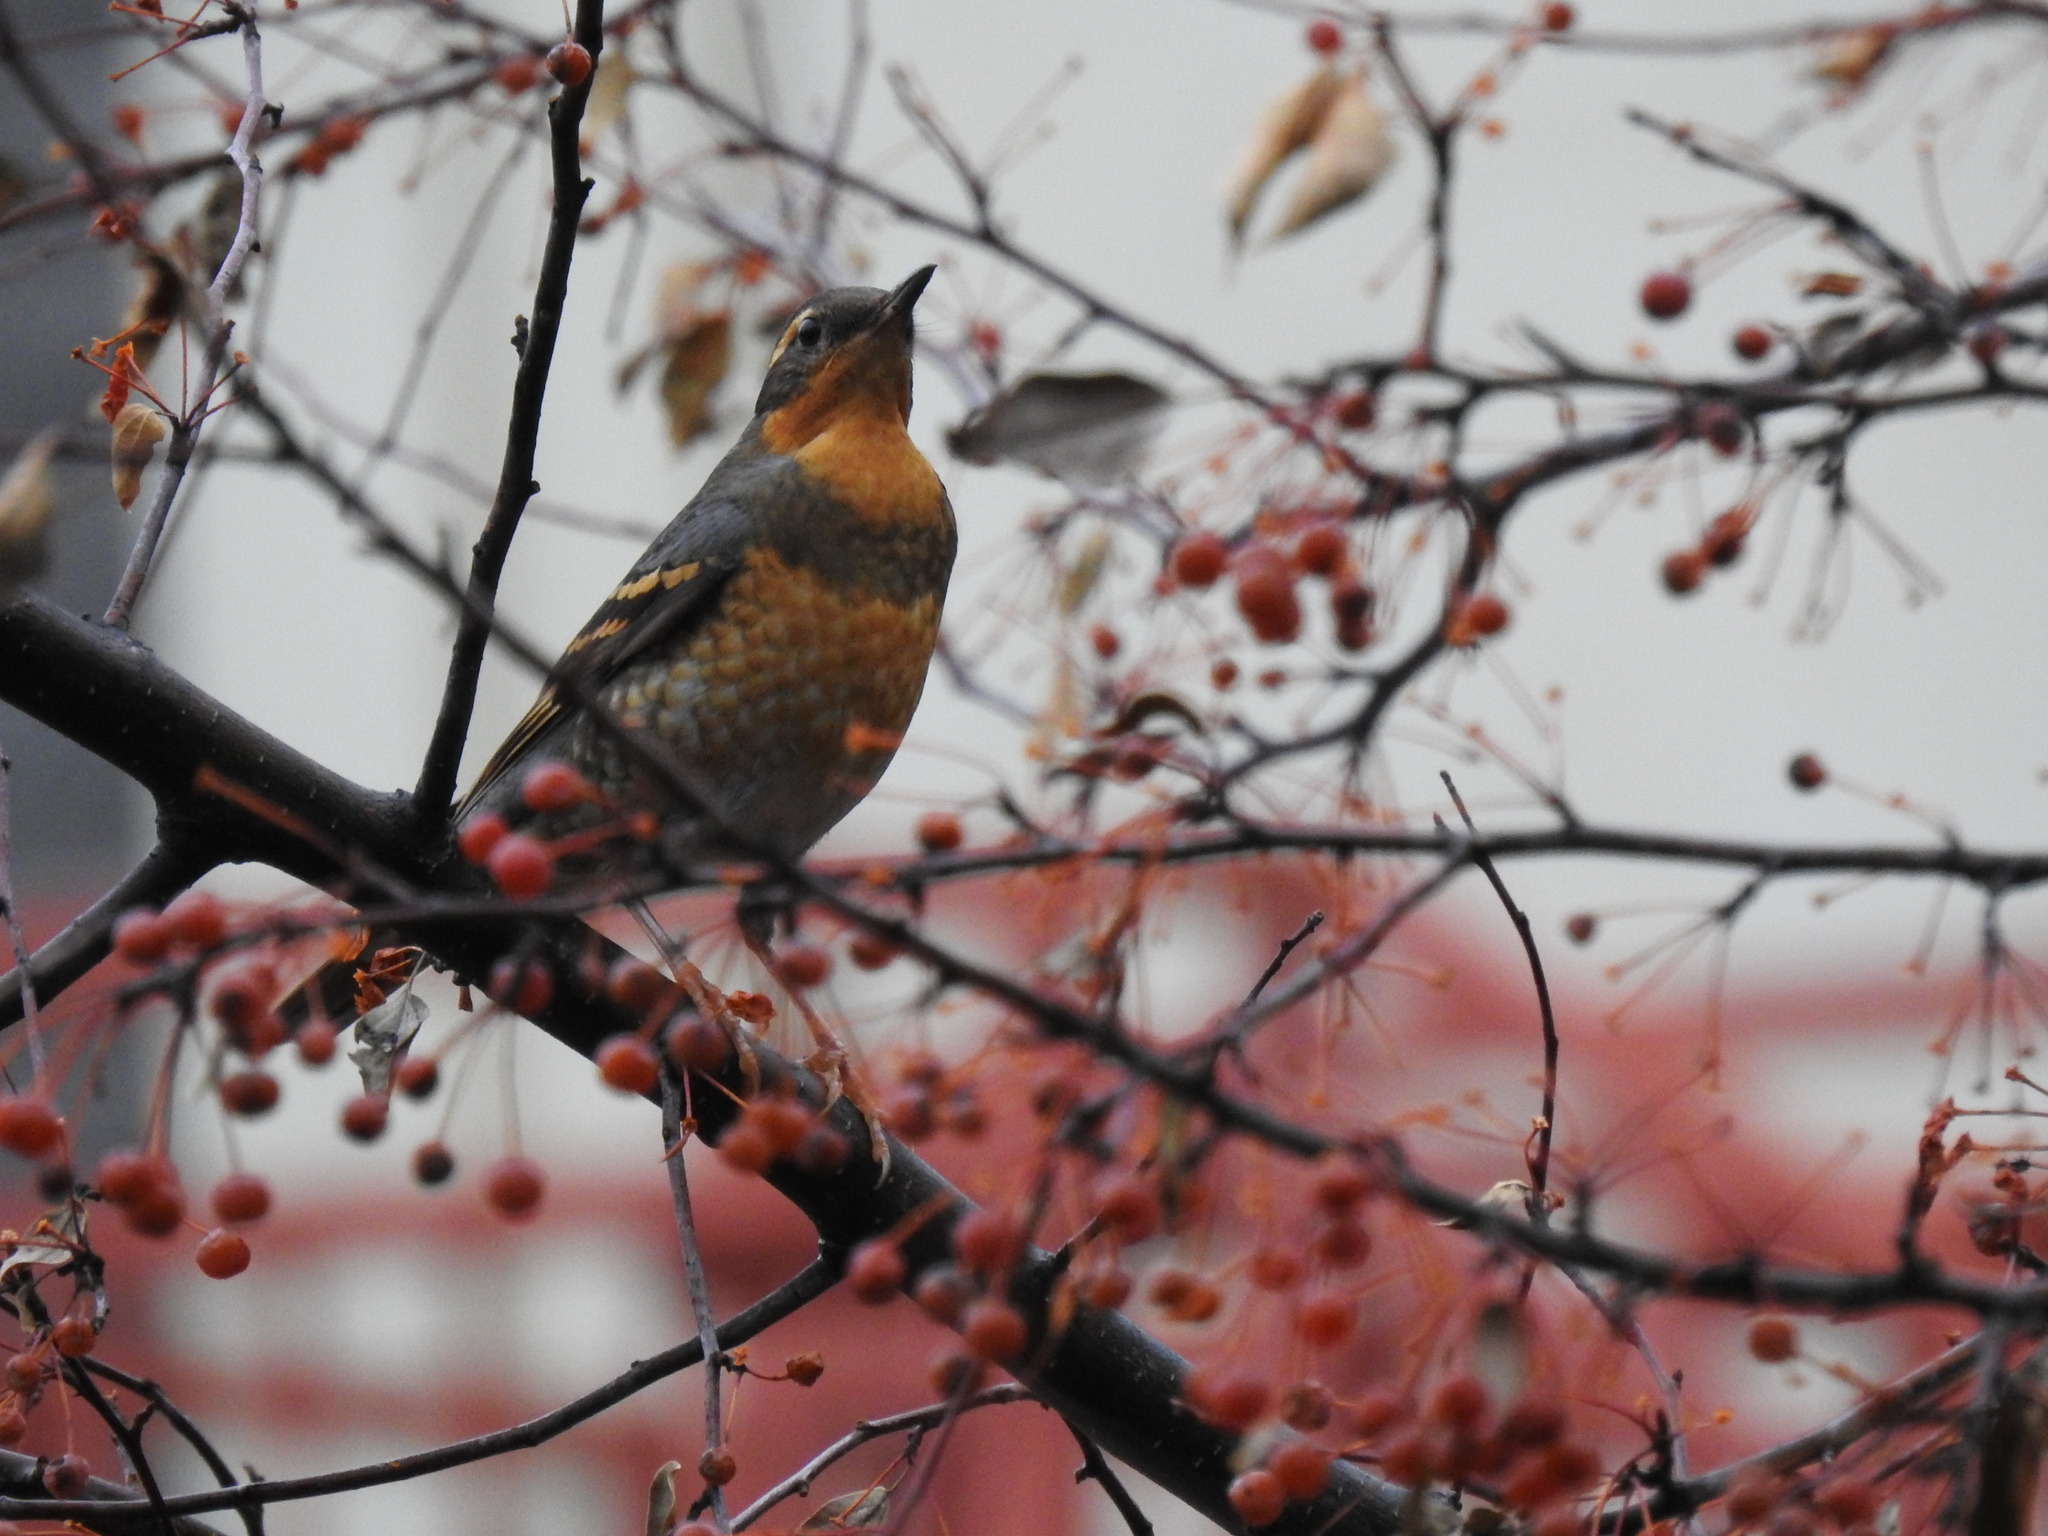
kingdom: Animalia
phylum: Chordata
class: Aves
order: Passeriformes
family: Turdidae
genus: Ixoreus
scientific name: Ixoreus naevius
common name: Varied thrush
